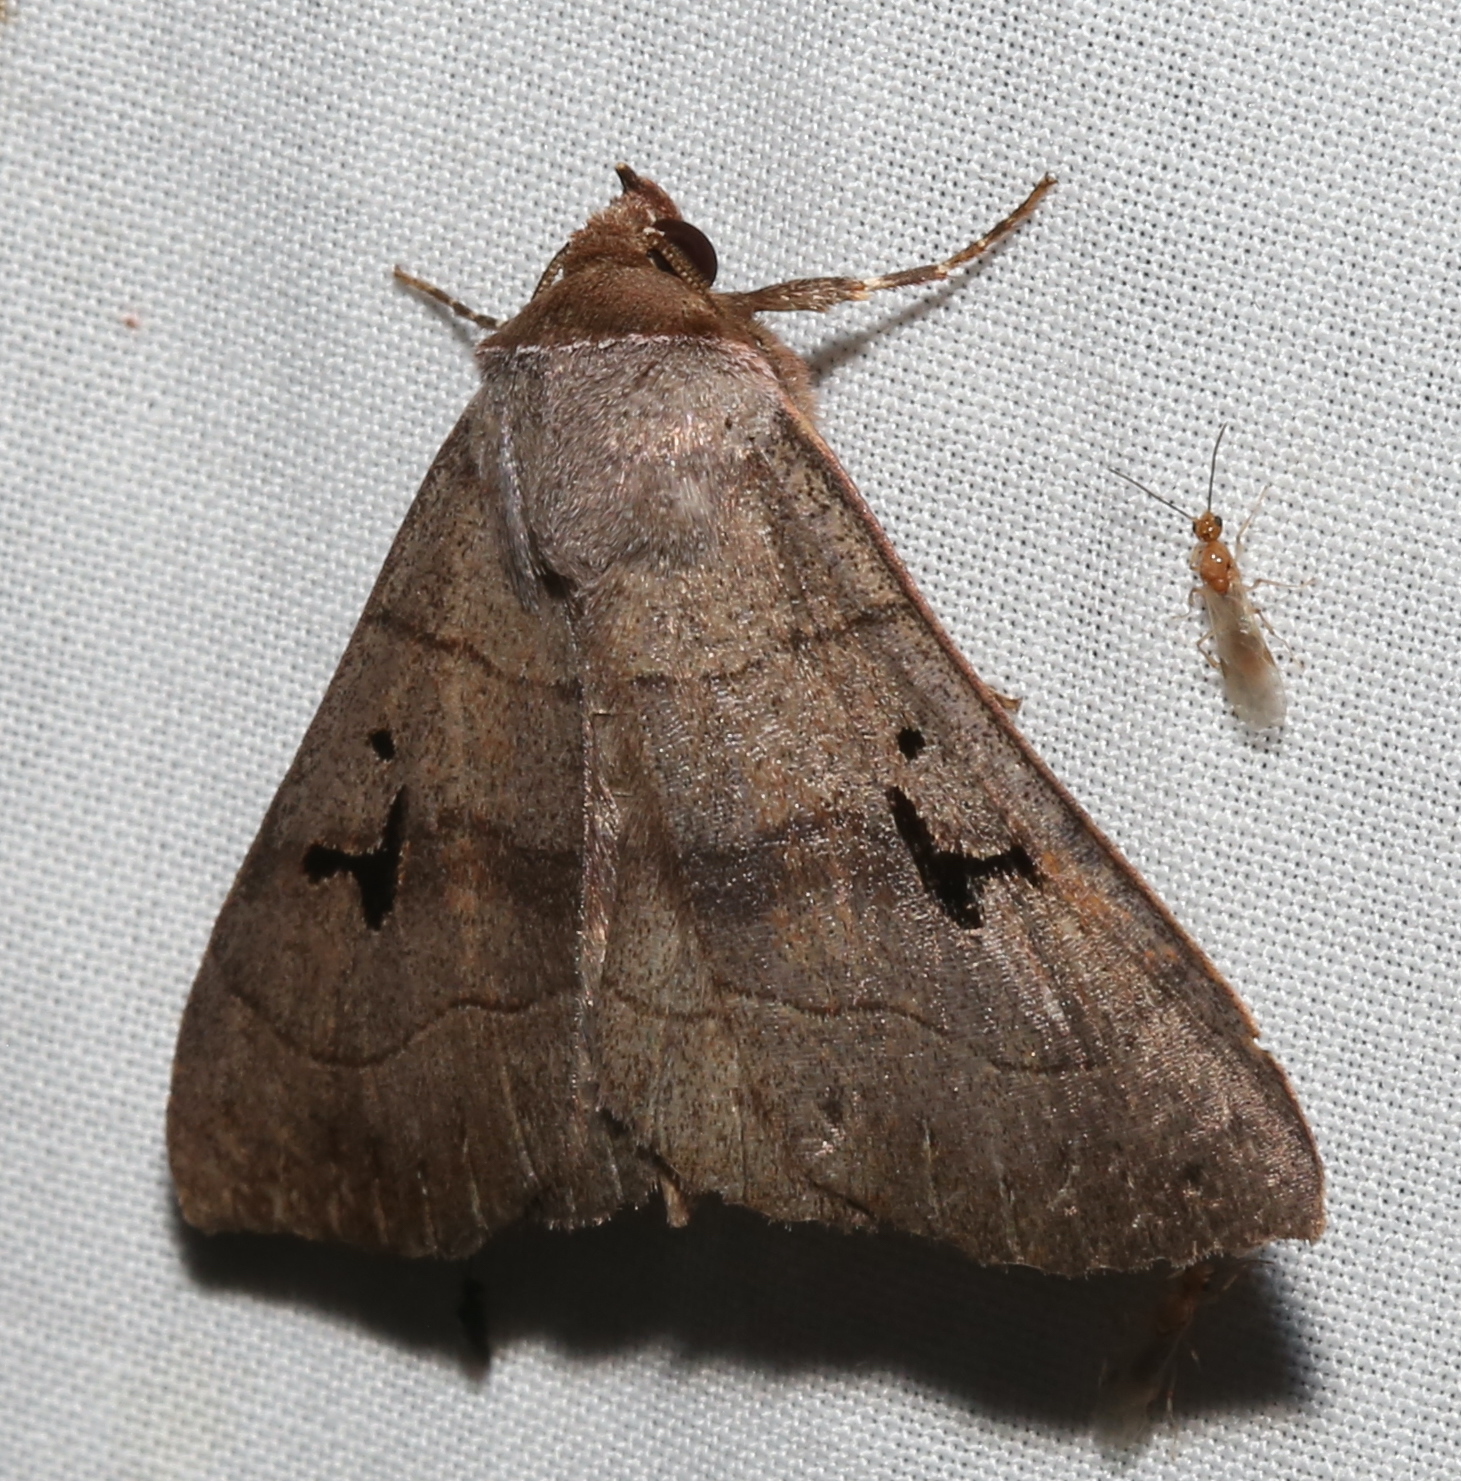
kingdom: Animalia
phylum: Arthropoda
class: Insecta
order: Lepidoptera
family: Erebidae
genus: Panopoda
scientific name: Panopoda carneicosta
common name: Brown panopoda moth
